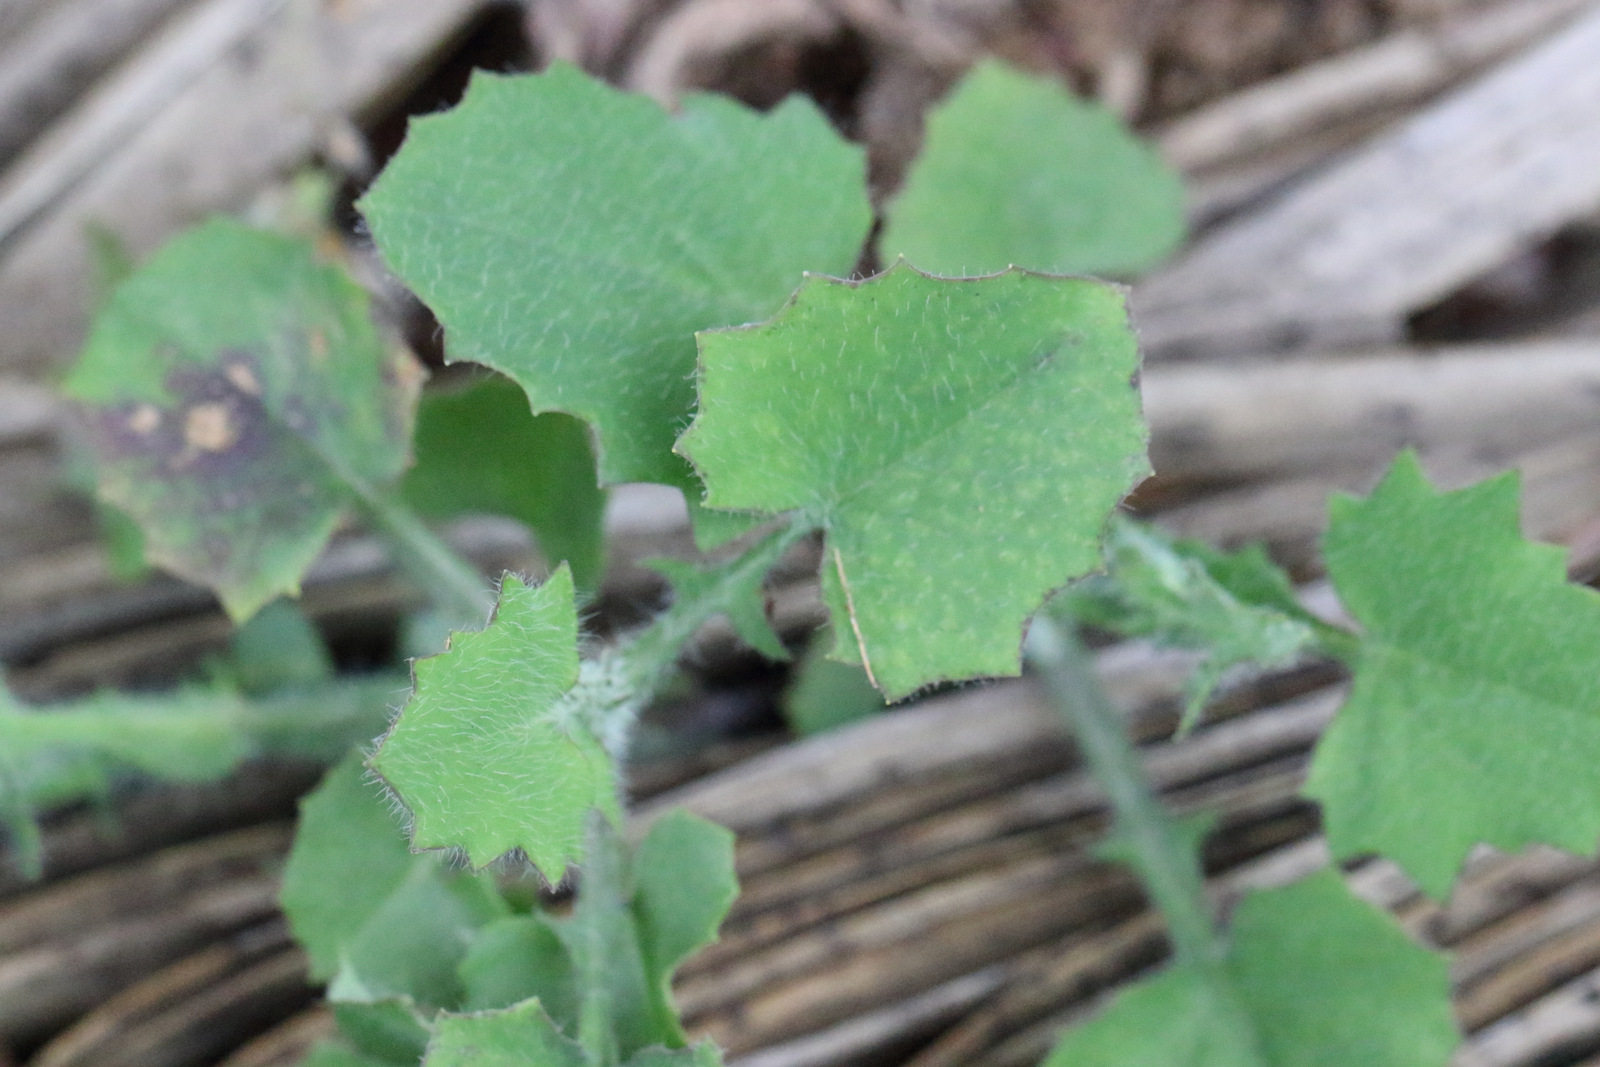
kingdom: Plantae
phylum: Tracheophyta
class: Magnoliopsida
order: Asterales
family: Asteraceae
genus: Emilia
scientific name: Emilia javanica
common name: Tassel-flower
